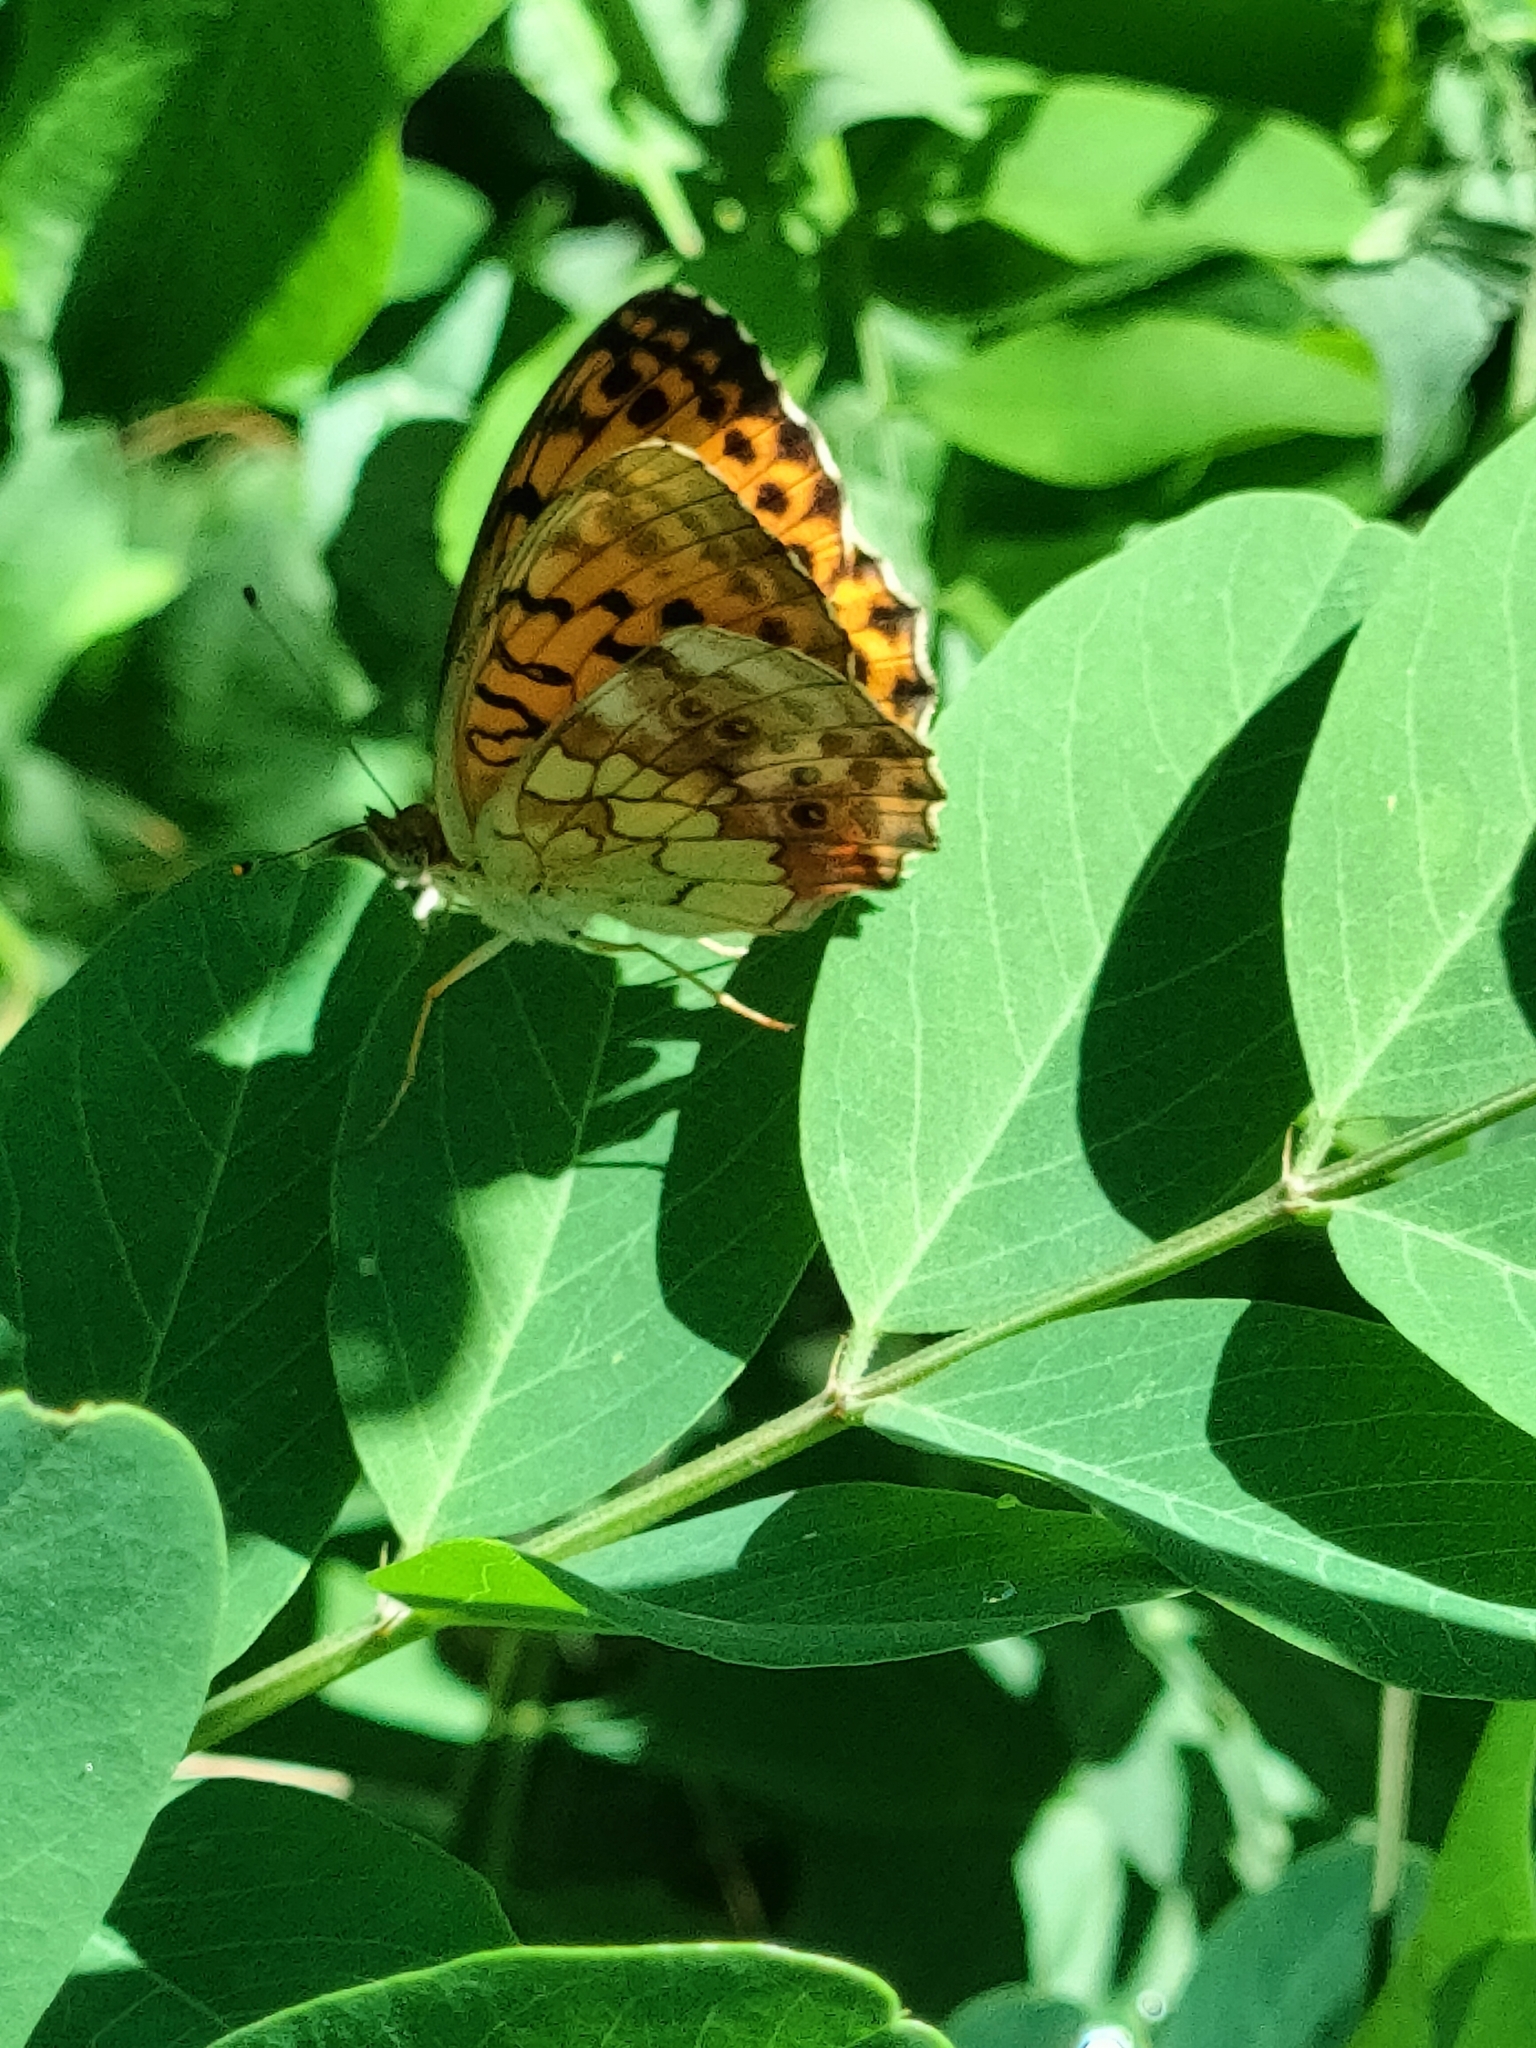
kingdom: Animalia
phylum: Arthropoda
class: Insecta
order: Lepidoptera
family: Nymphalidae
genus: Brenthis
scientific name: Brenthis daphne
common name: Marbled fritillary
